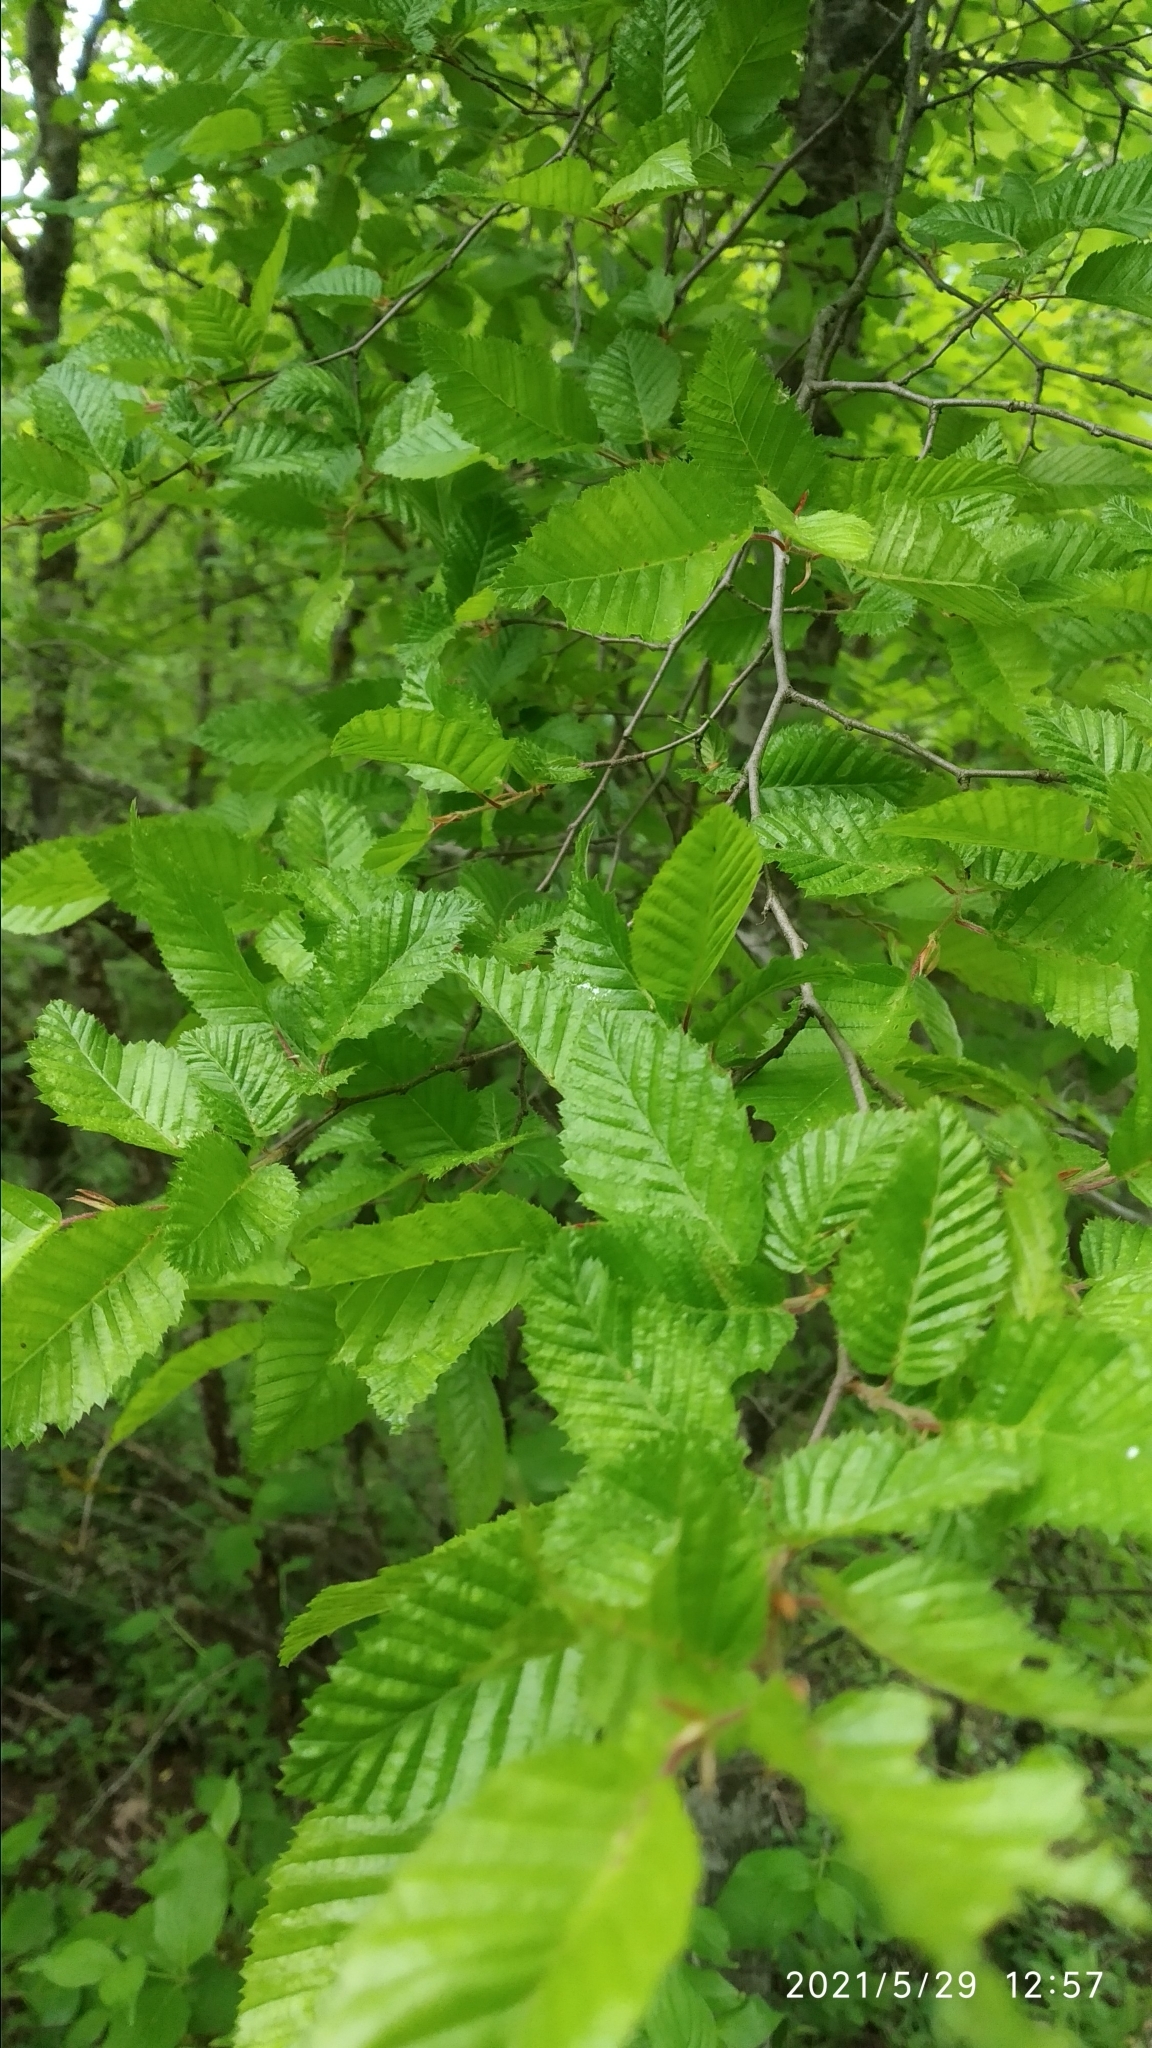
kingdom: Plantae
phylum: Tracheophyta
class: Magnoliopsida
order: Fagales
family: Betulaceae
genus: Carpinus
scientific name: Carpinus orientalis
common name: Eastern hornbeam
